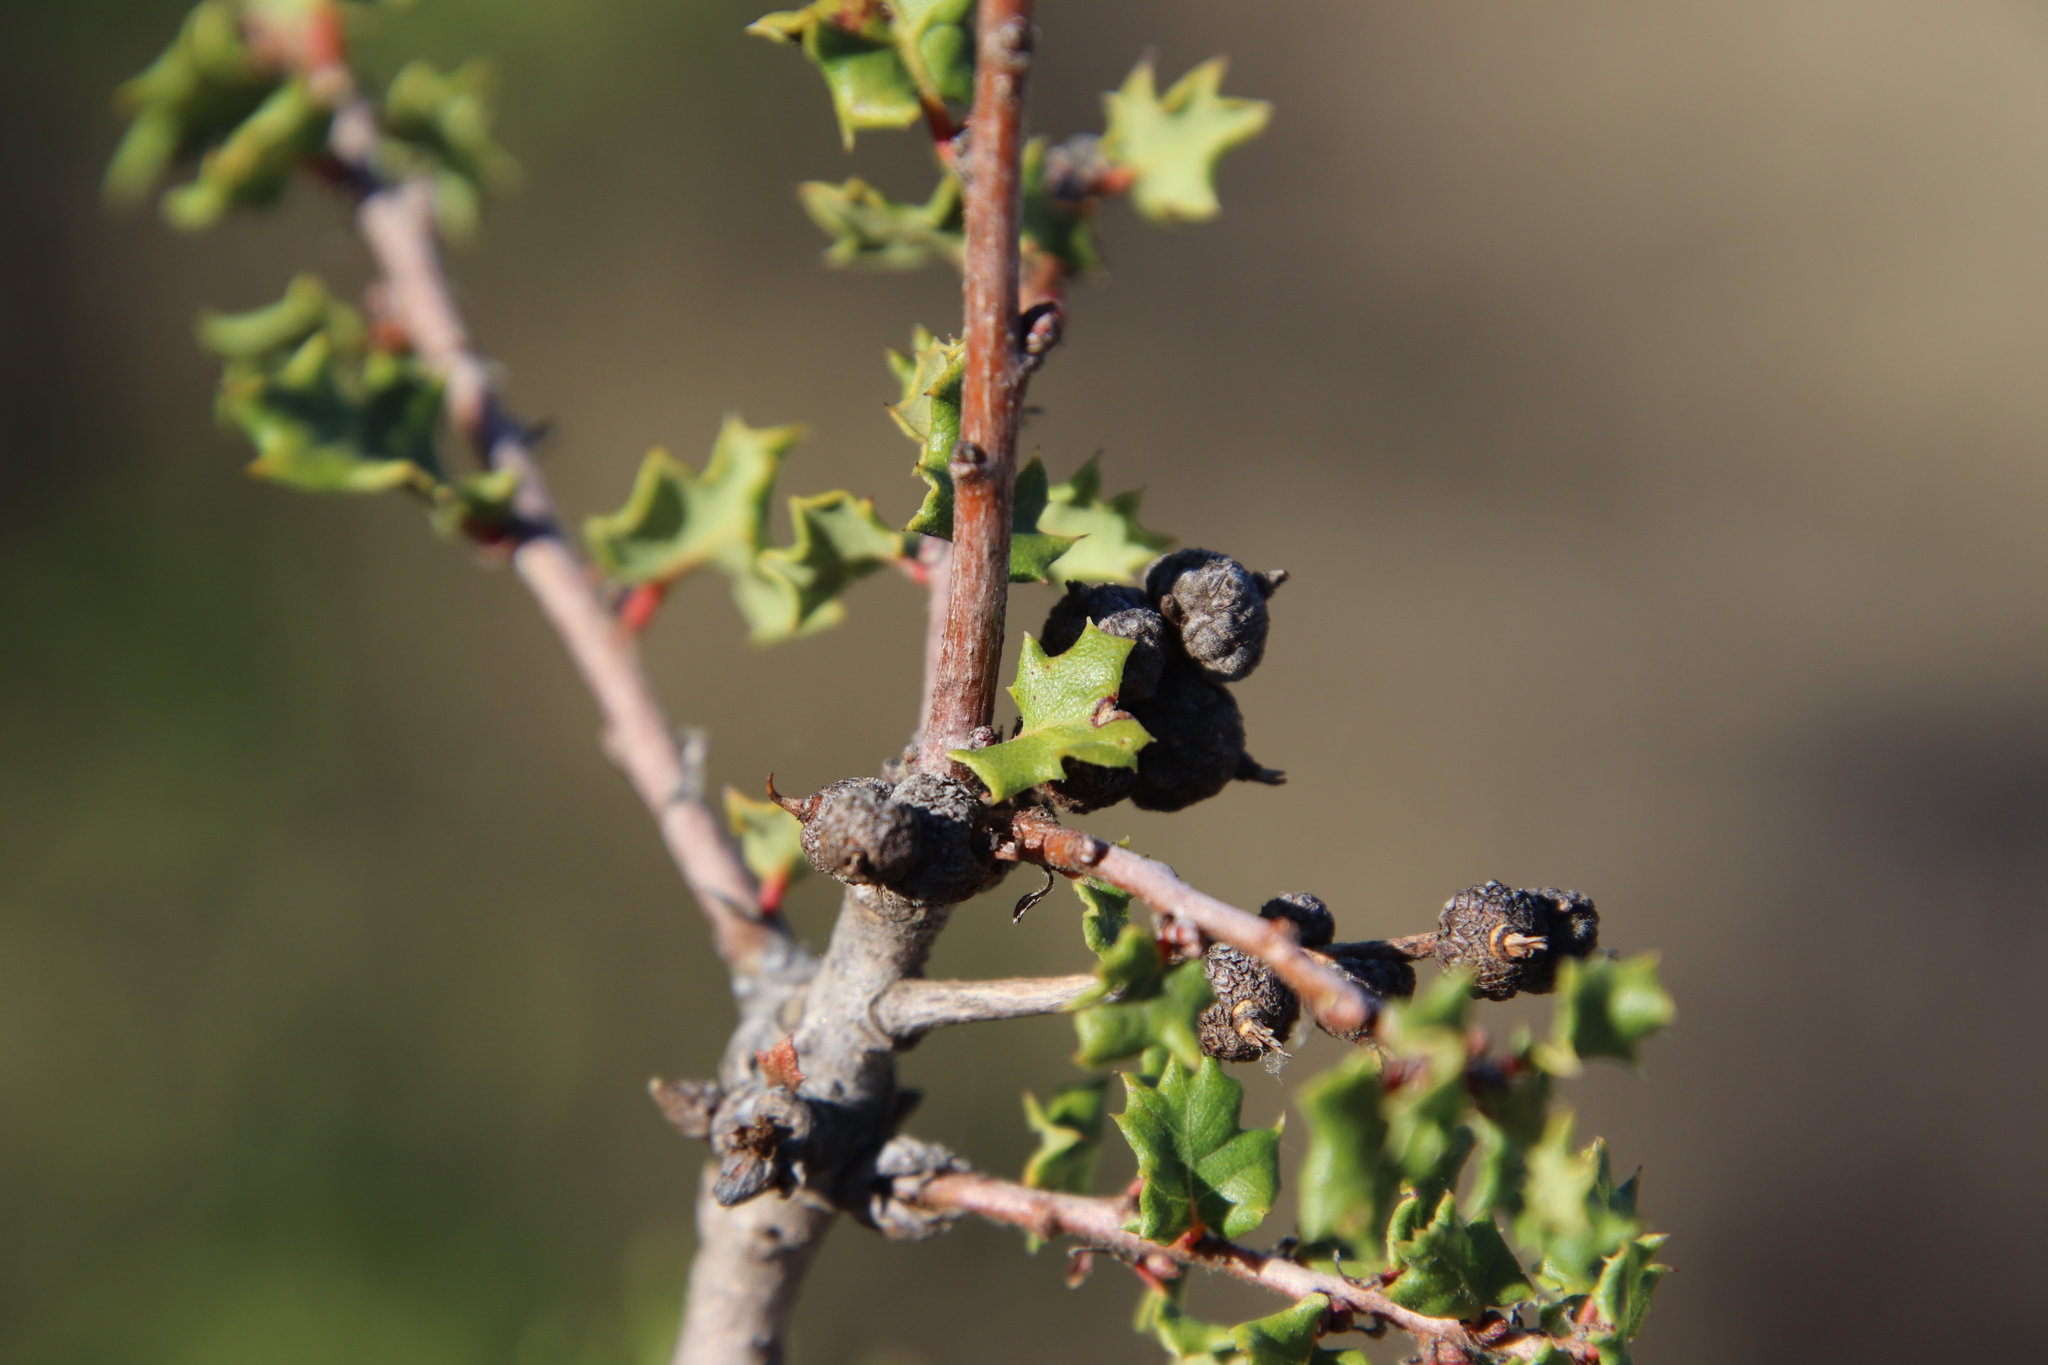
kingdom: Animalia
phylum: Arthropoda
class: Insecta
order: Hymenoptera
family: Cynipidae
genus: Disholcaspis
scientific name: Disholcaspis mamillana
